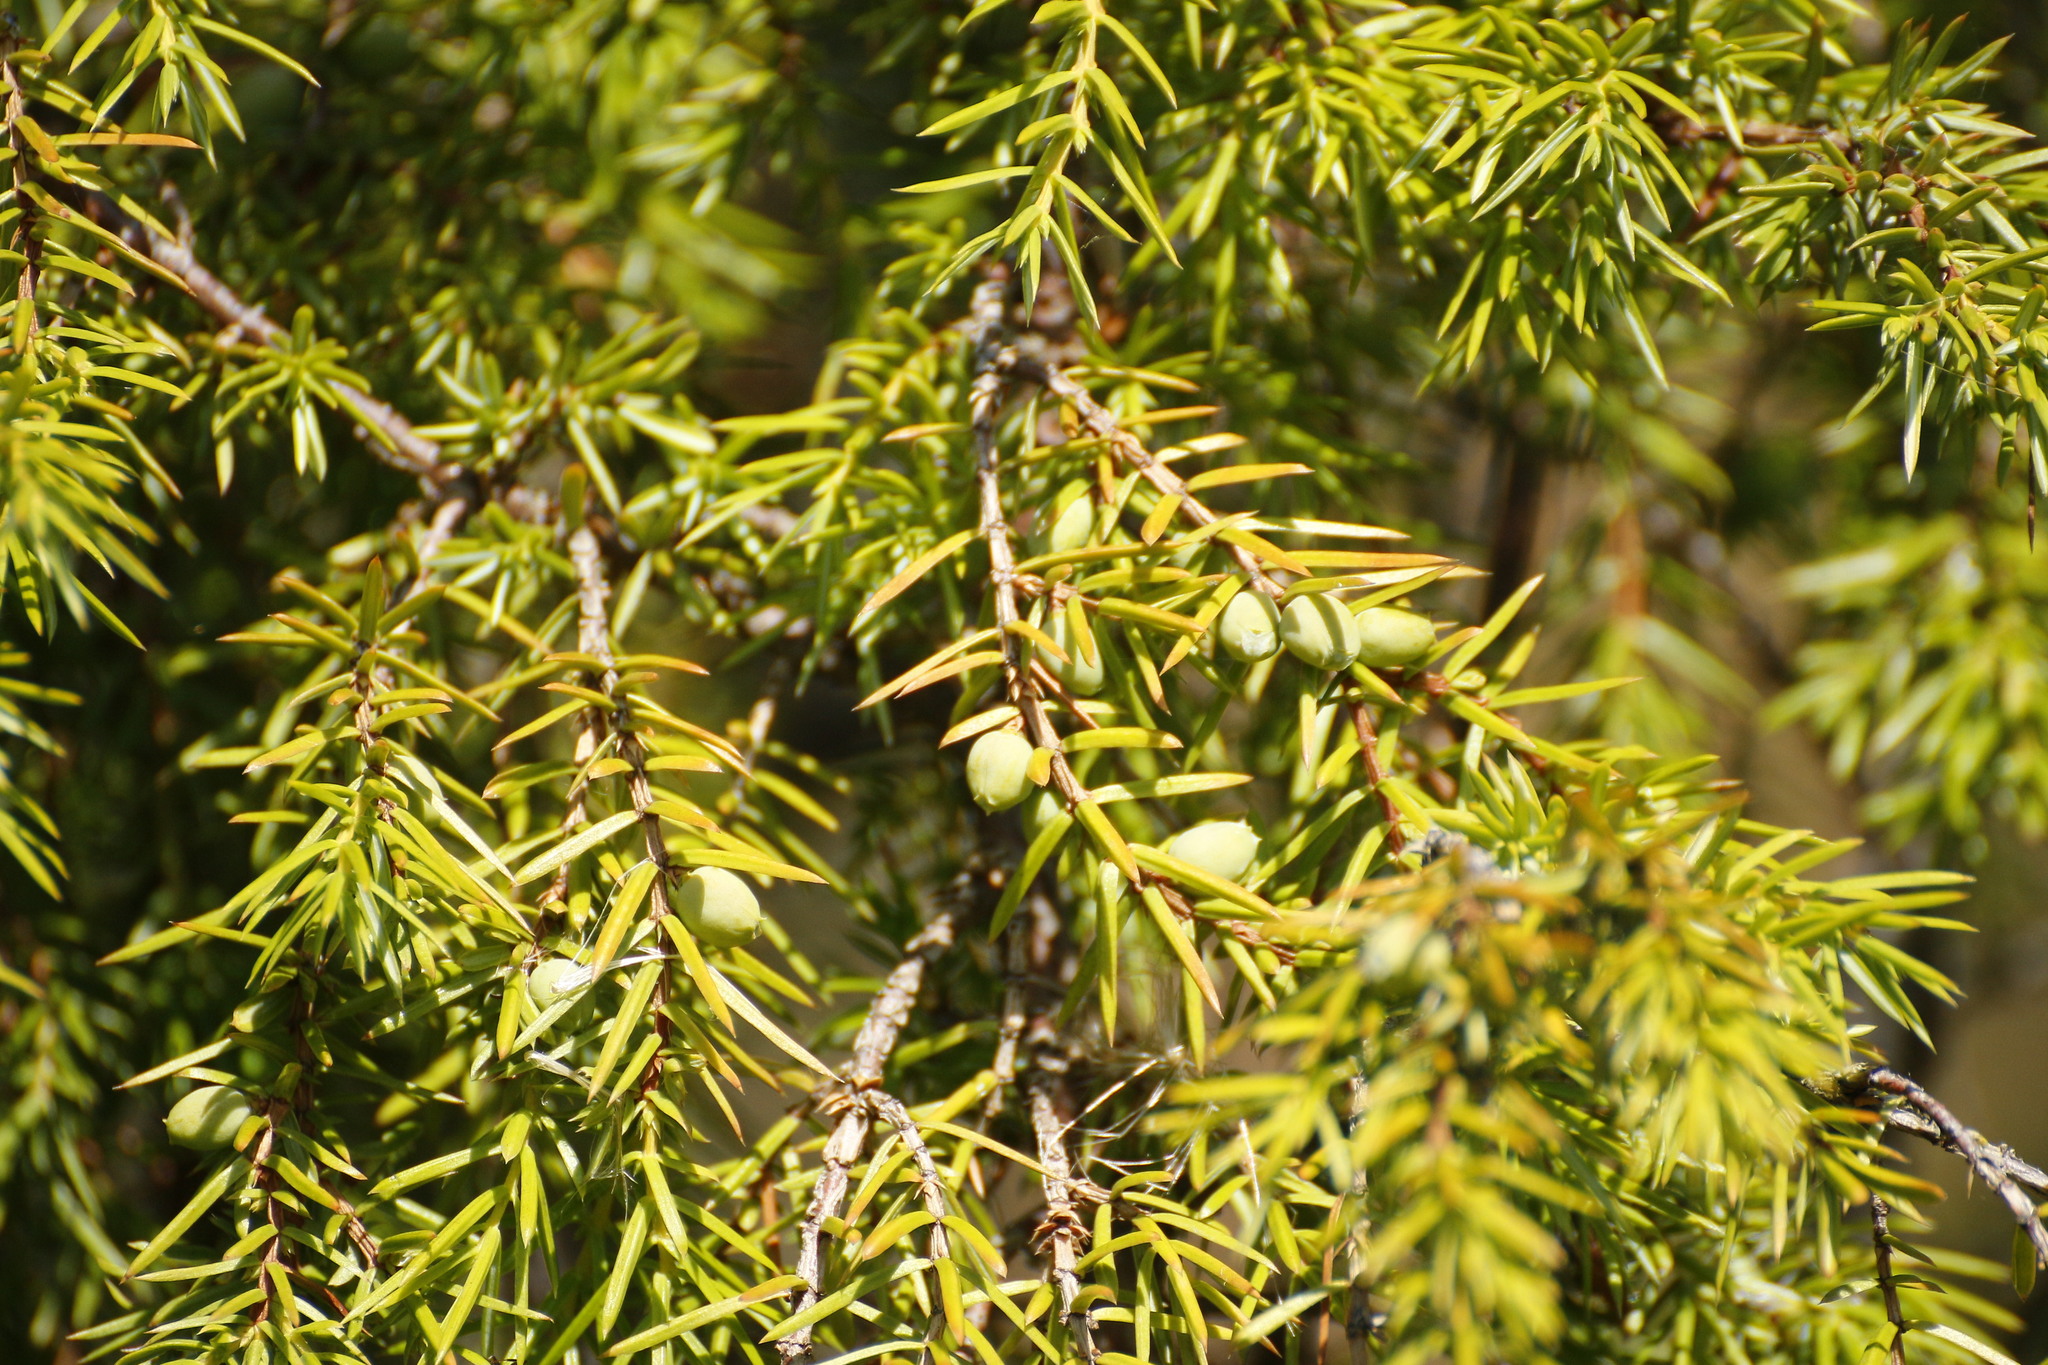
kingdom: Plantae
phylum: Tracheophyta
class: Pinopsida
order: Pinales
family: Cupressaceae
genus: Juniperus
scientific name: Juniperus communis
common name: Common juniper
